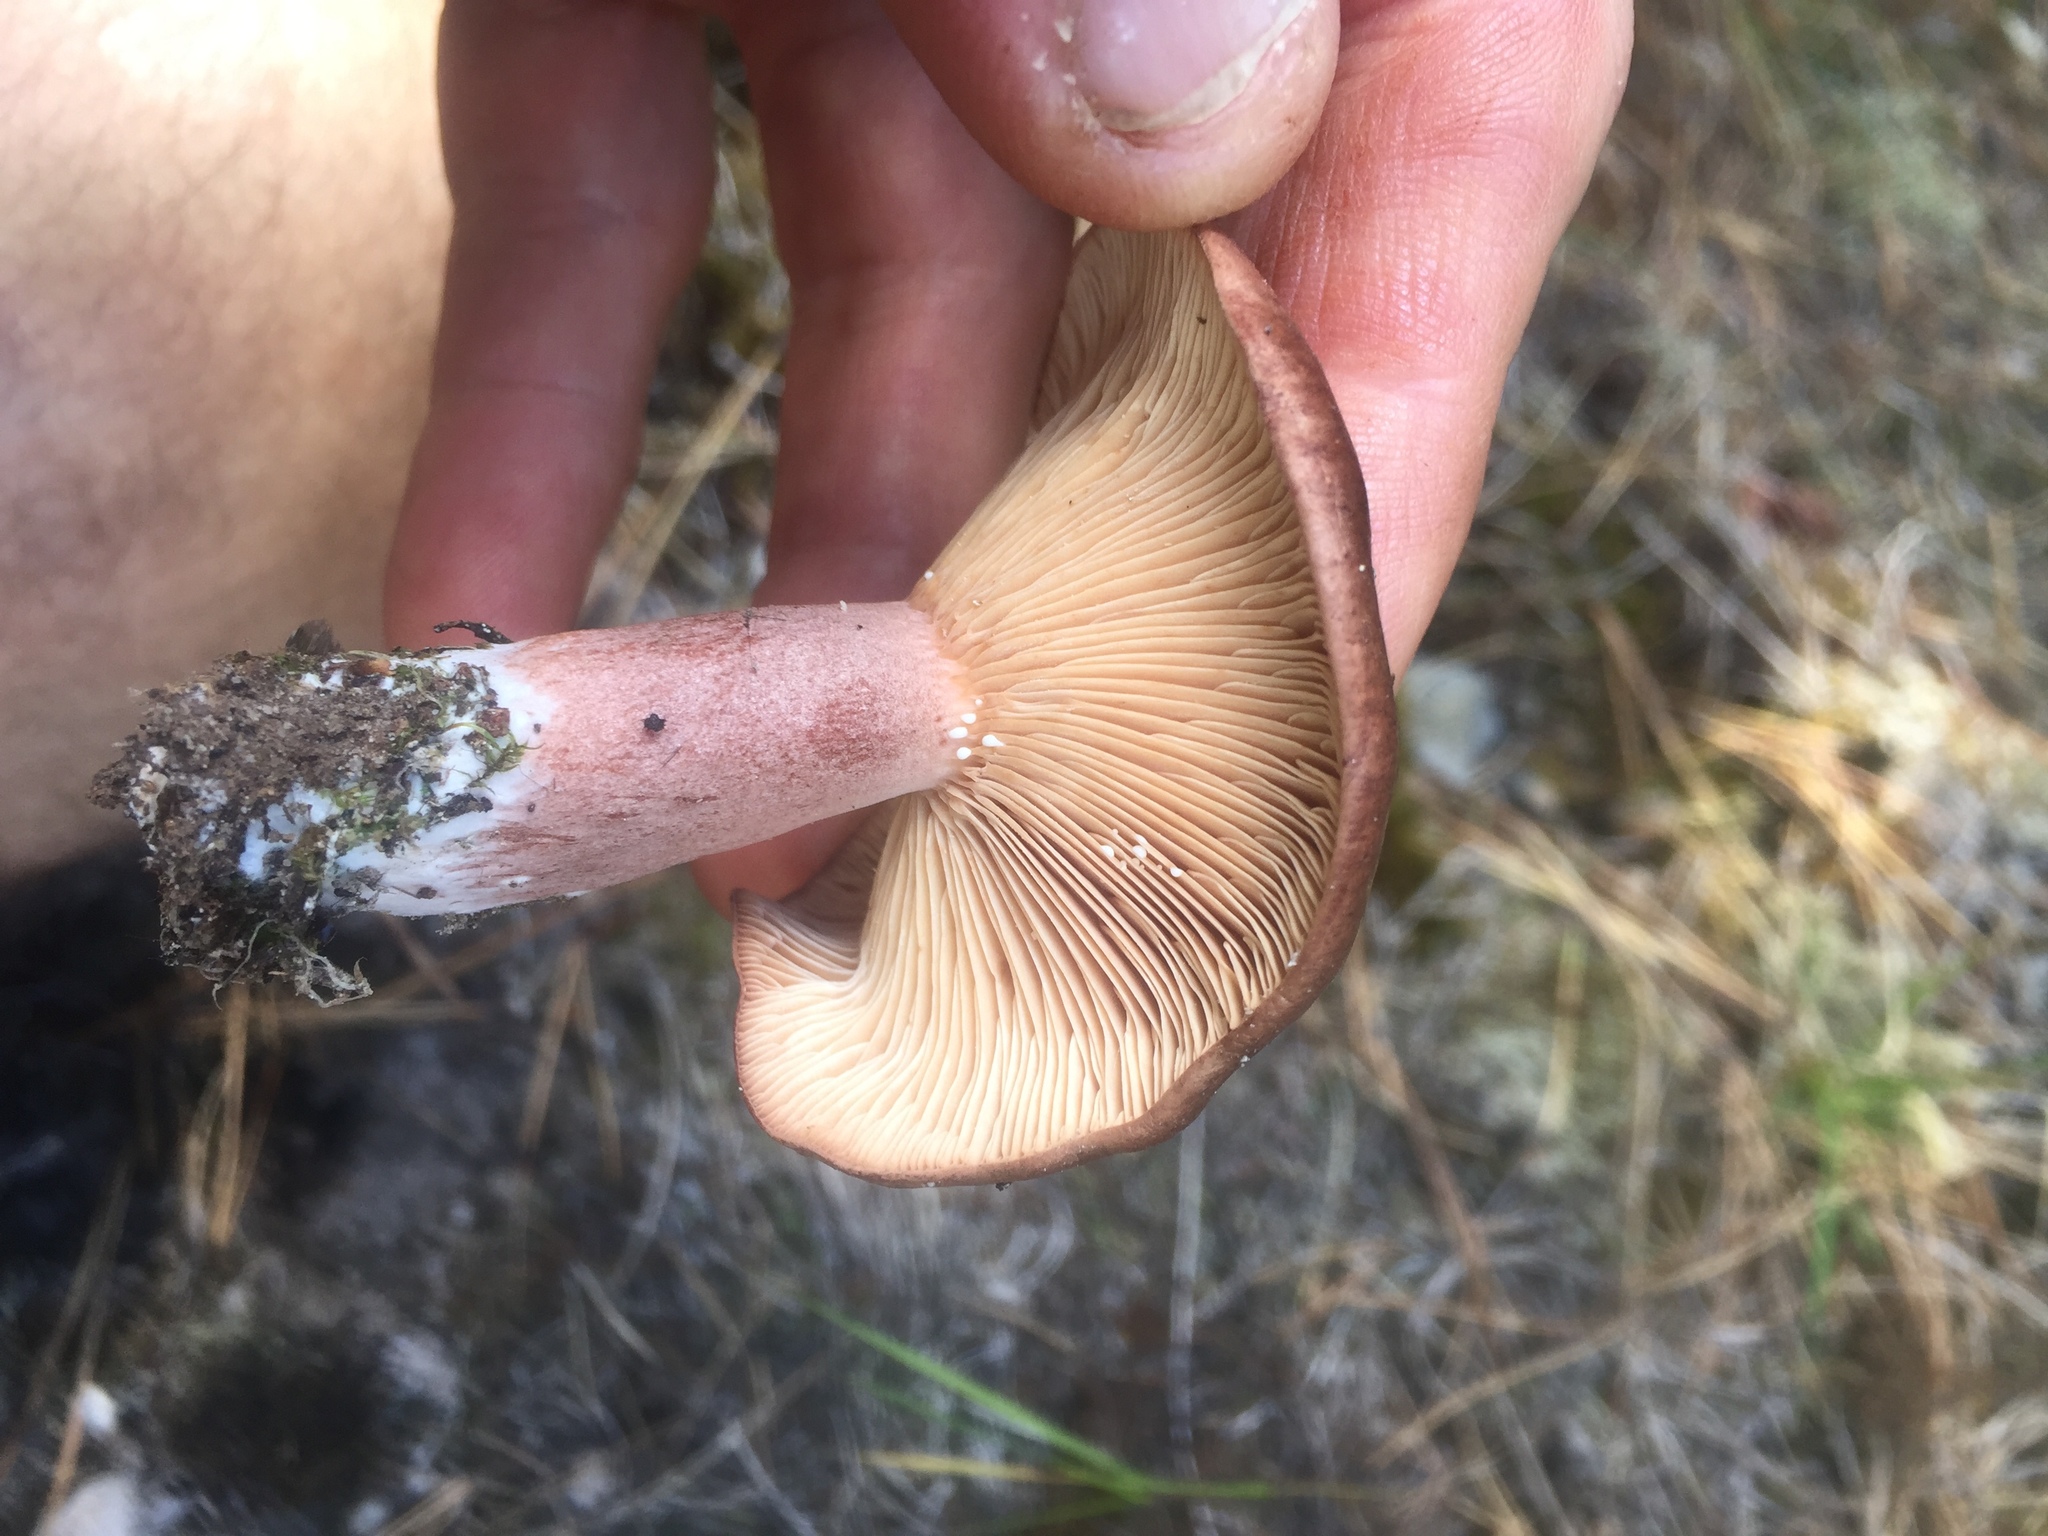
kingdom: Fungi
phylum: Basidiomycota
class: Agaricomycetes
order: Russulales
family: Russulaceae
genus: Lactarius
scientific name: Lactarius rufus
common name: Rufous milk-cap
